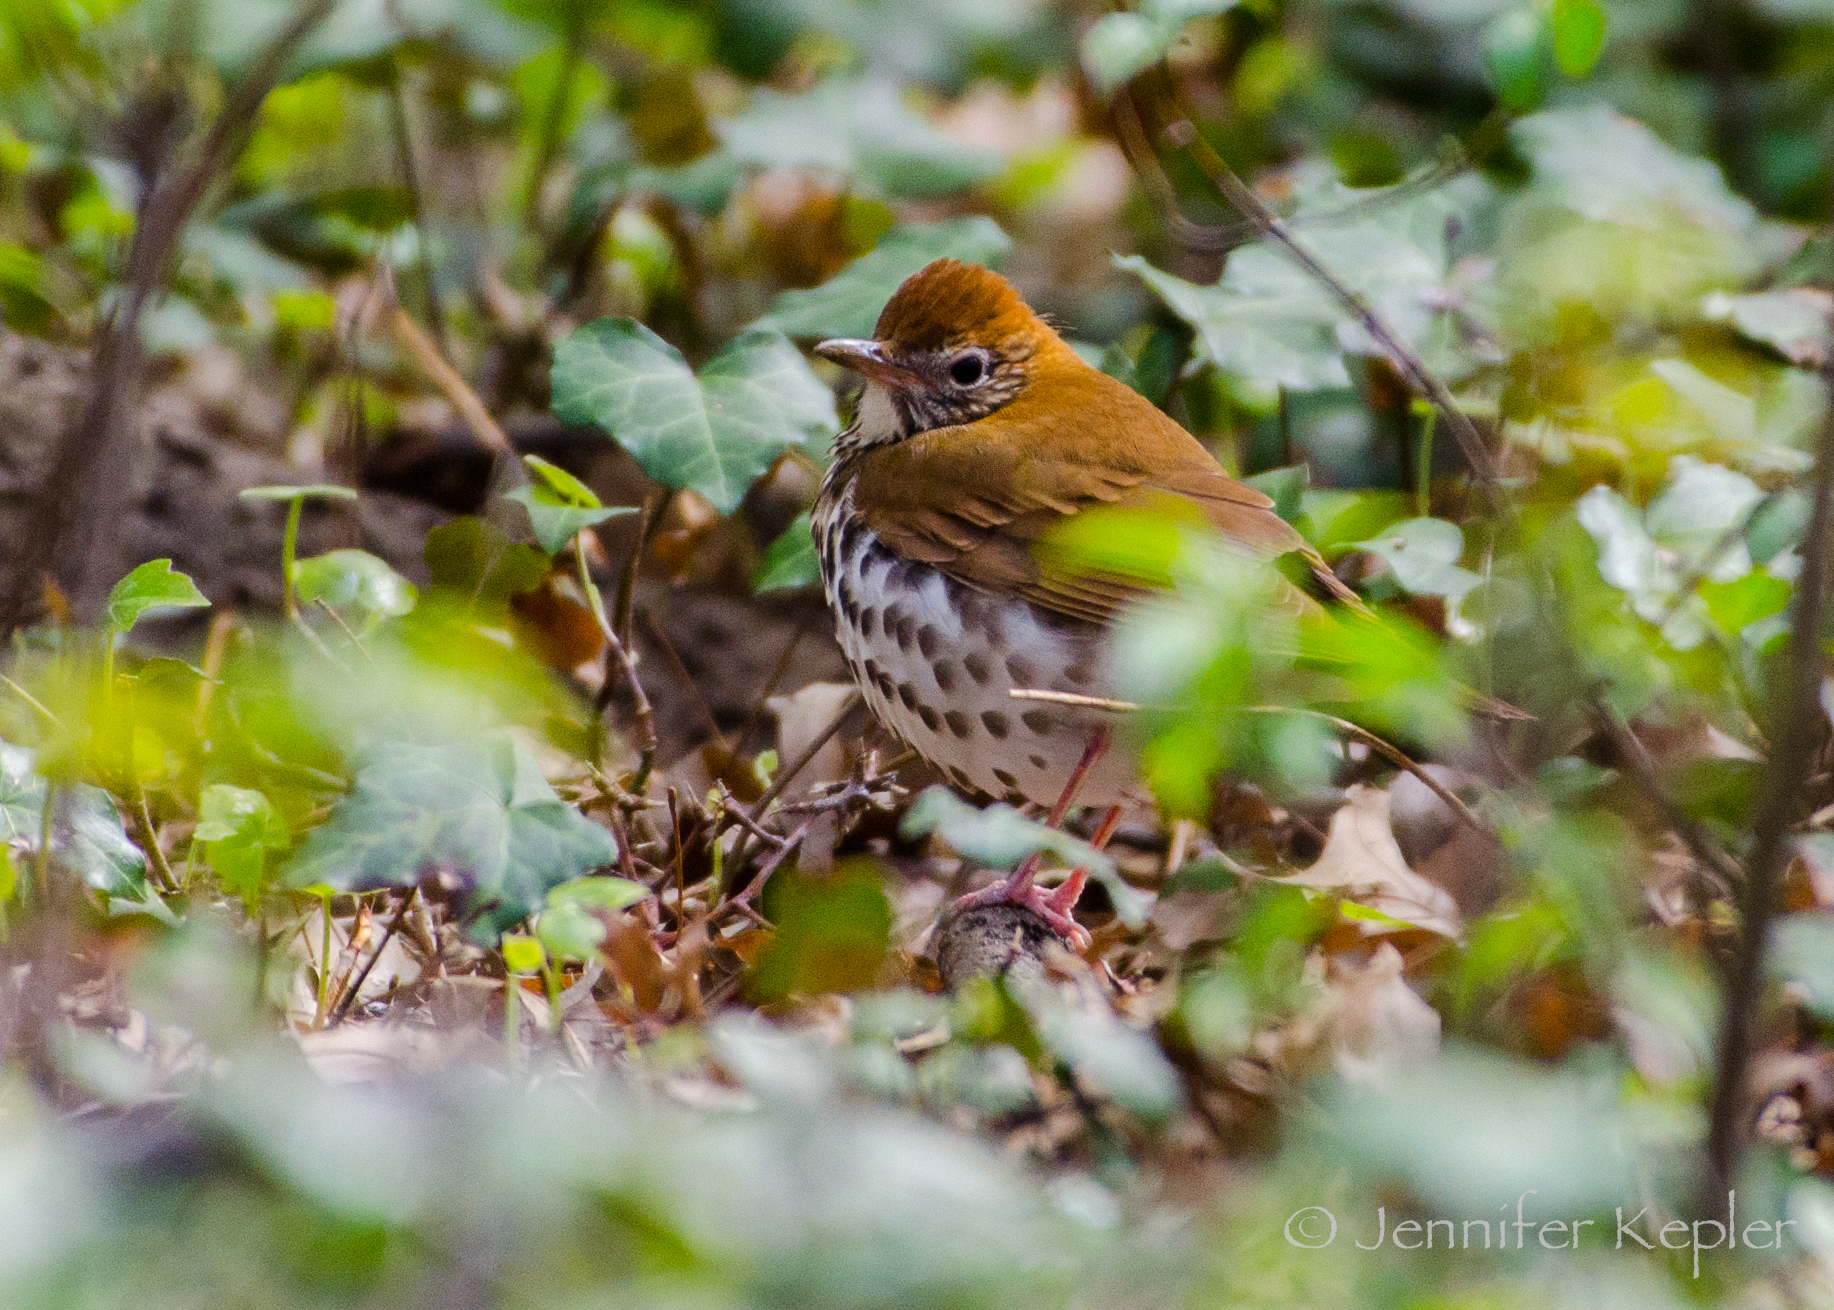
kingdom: Animalia
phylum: Chordata
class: Aves
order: Passeriformes
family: Turdidae
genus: Hylocichla
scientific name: Hylocichla mustelina
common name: Wood thrush
